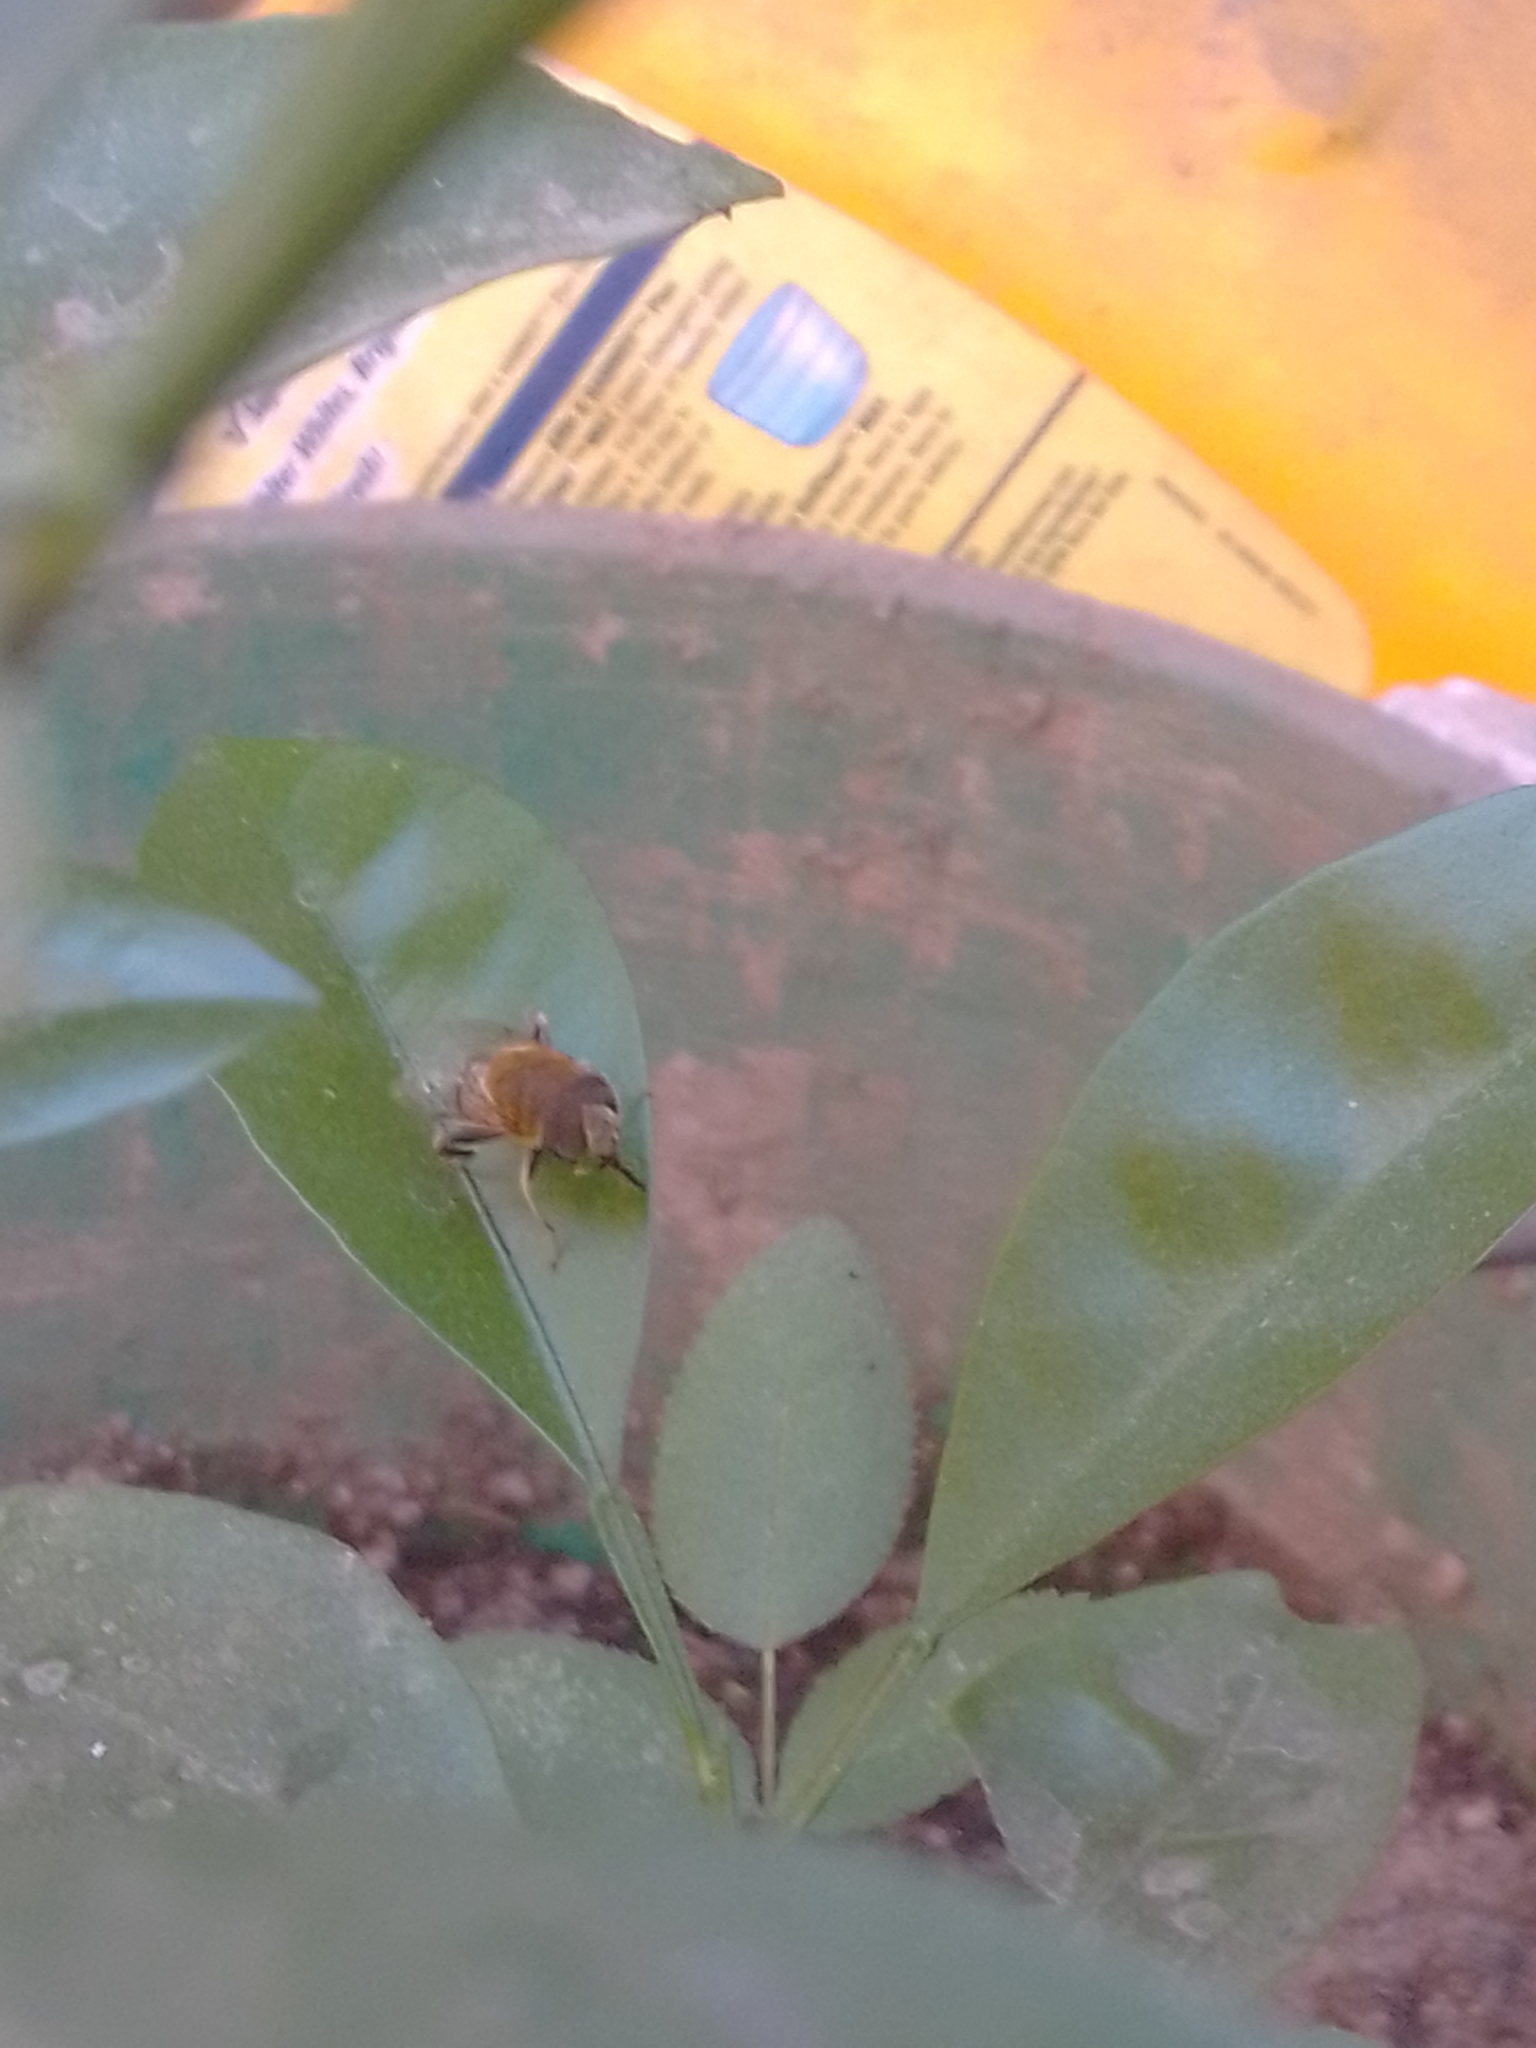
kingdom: Animalia
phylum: Arthropoda
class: Insecta
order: Diptera
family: Syrphidae
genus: Palpada
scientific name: Palpada mexicana
